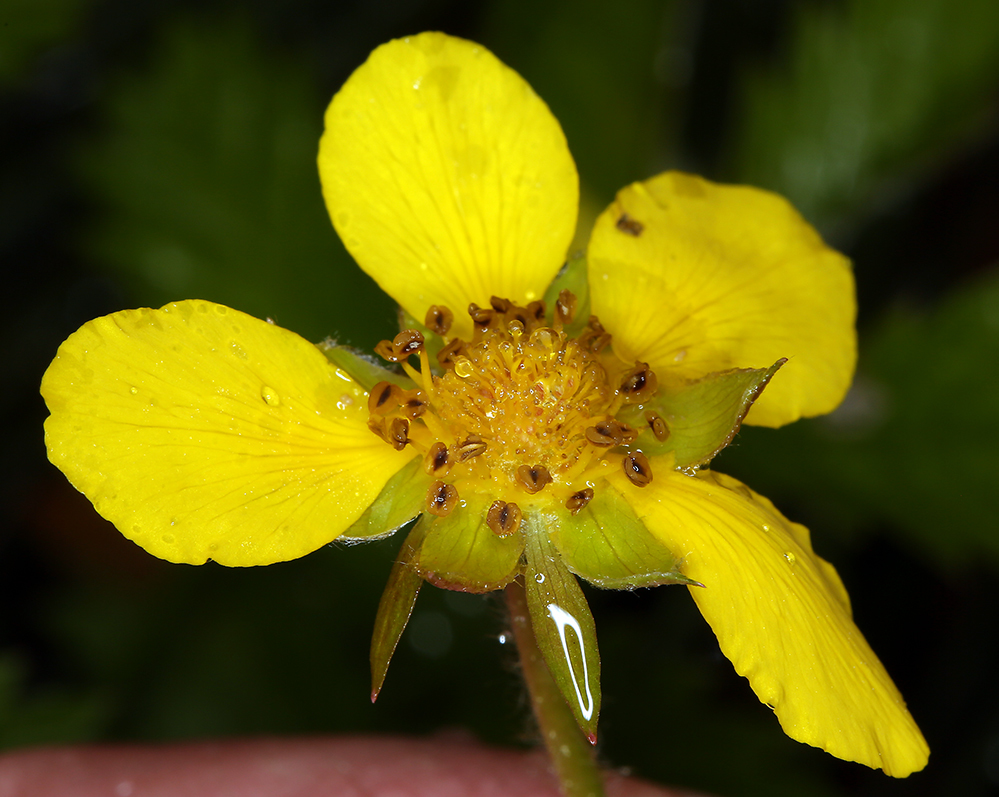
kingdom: Plantae
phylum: Tracheophyta
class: Magnoliopsida
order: Rosales
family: Rosaceae
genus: Argentina
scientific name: Argentina anserina
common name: Common silverweed
